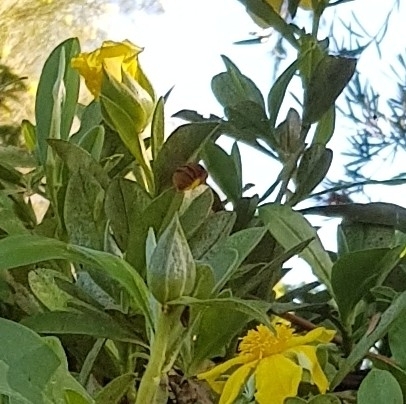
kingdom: Animalia
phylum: Arthropoda
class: Insecta
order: Hymenoptera
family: Apidae
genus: Amegilla
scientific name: Amegilla bombiformis
